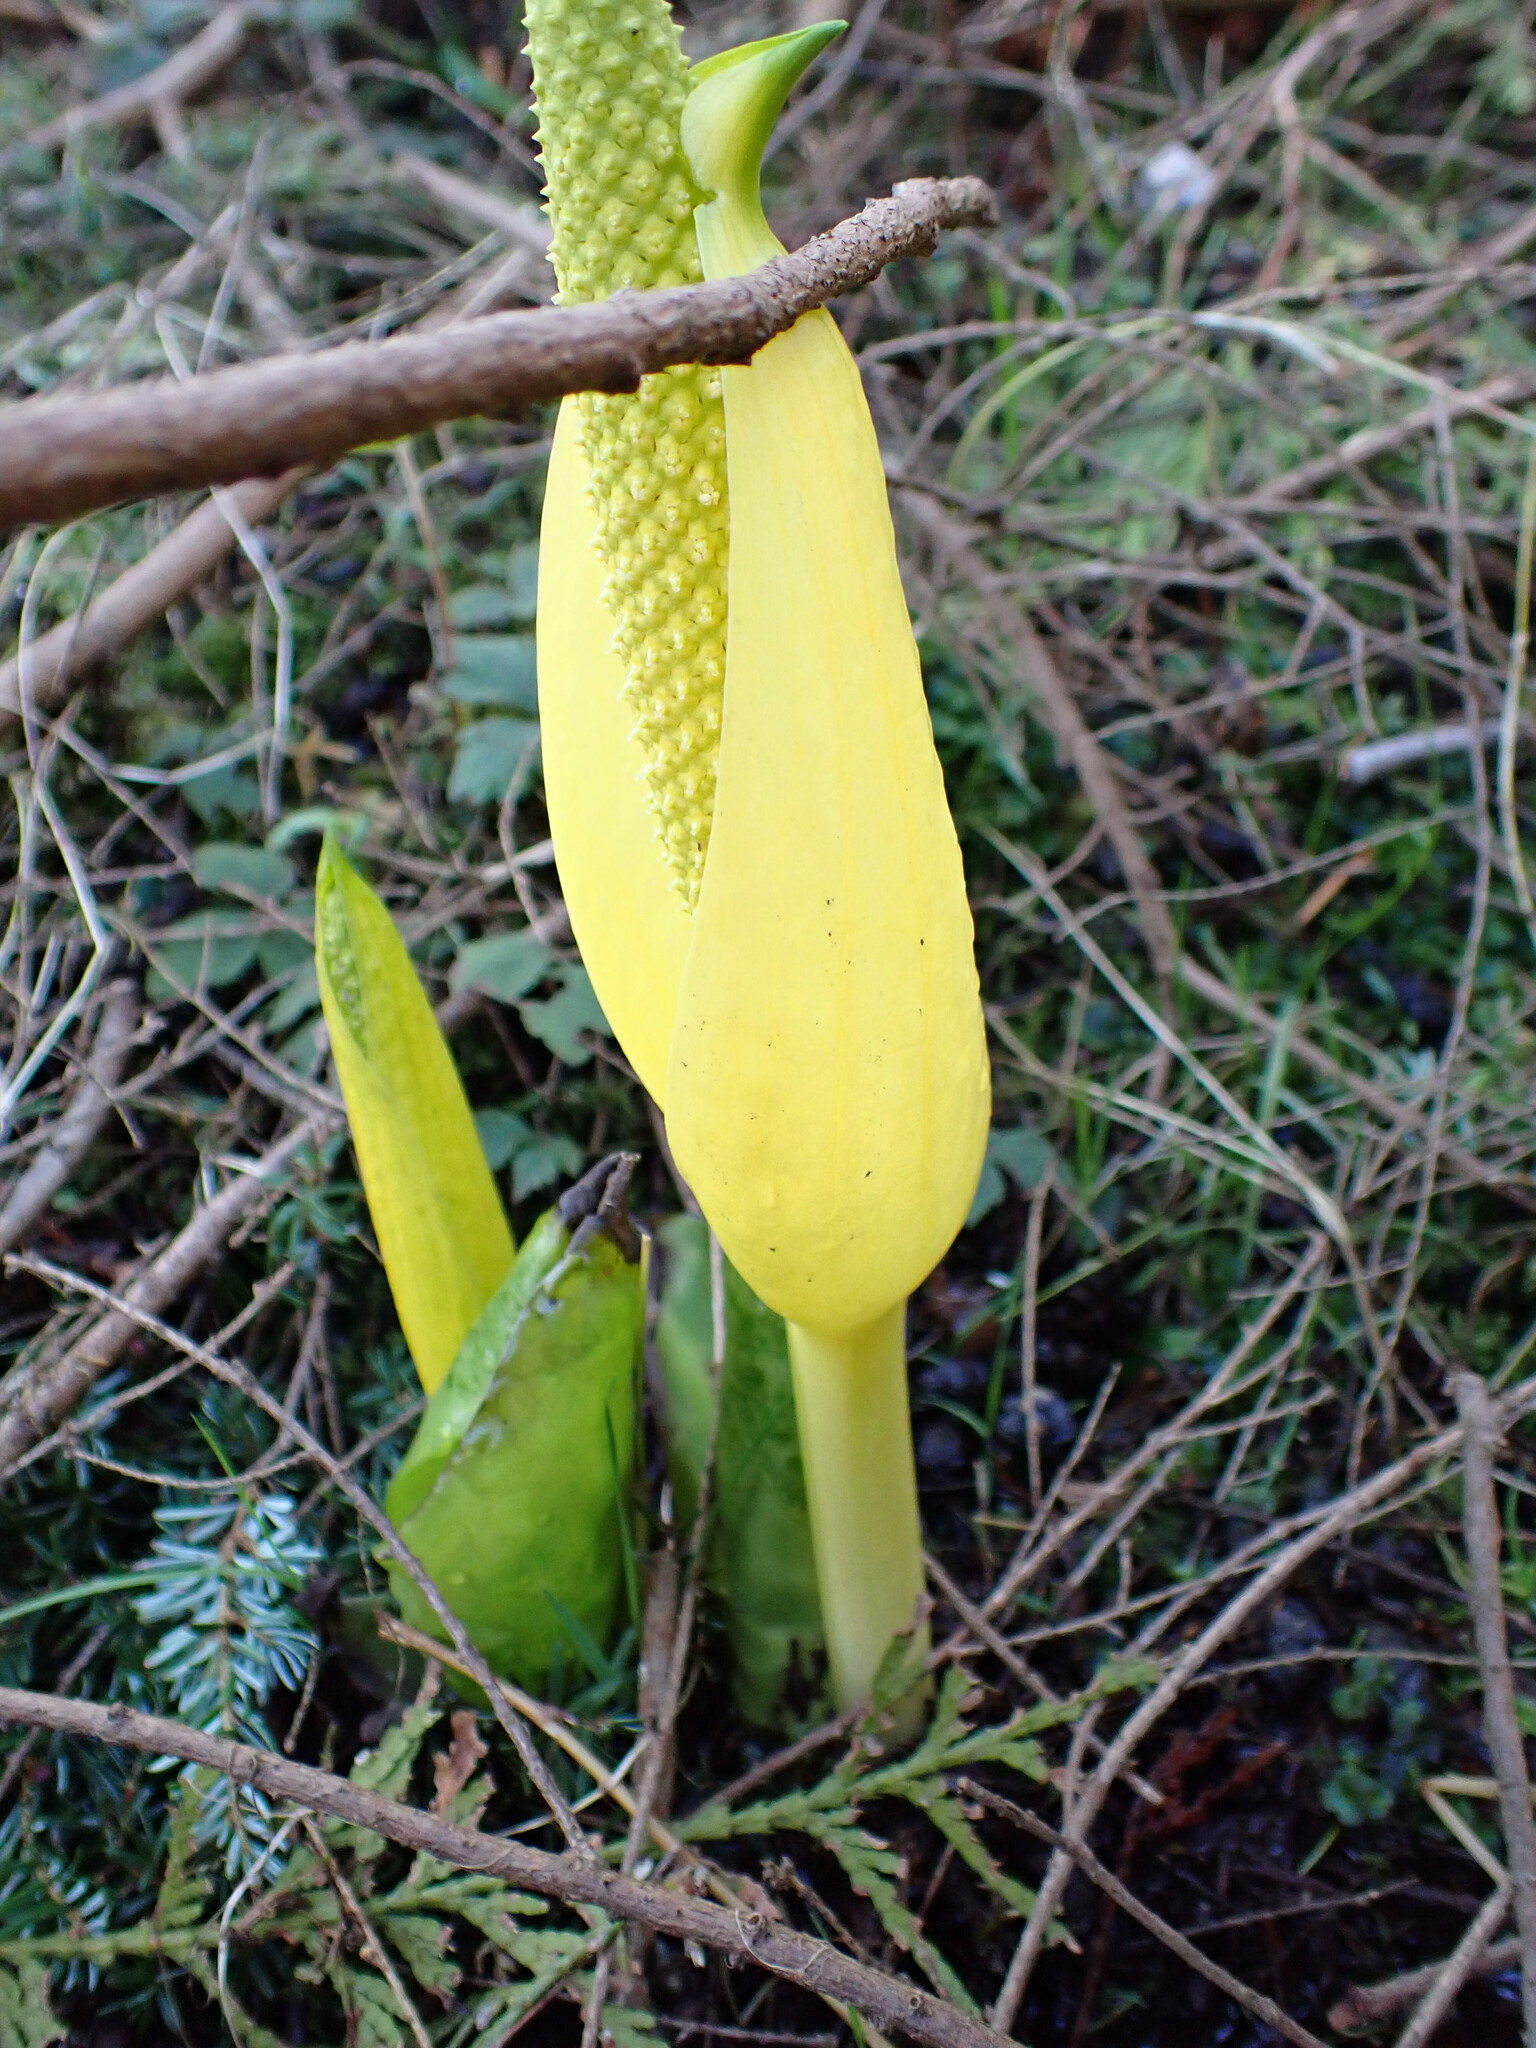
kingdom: Plantae
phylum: Tracheophyta
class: Liliopsida
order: Alismatales
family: Araceae
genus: Lysichiton
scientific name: Lysichiton americanus
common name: American skunk cabbage
